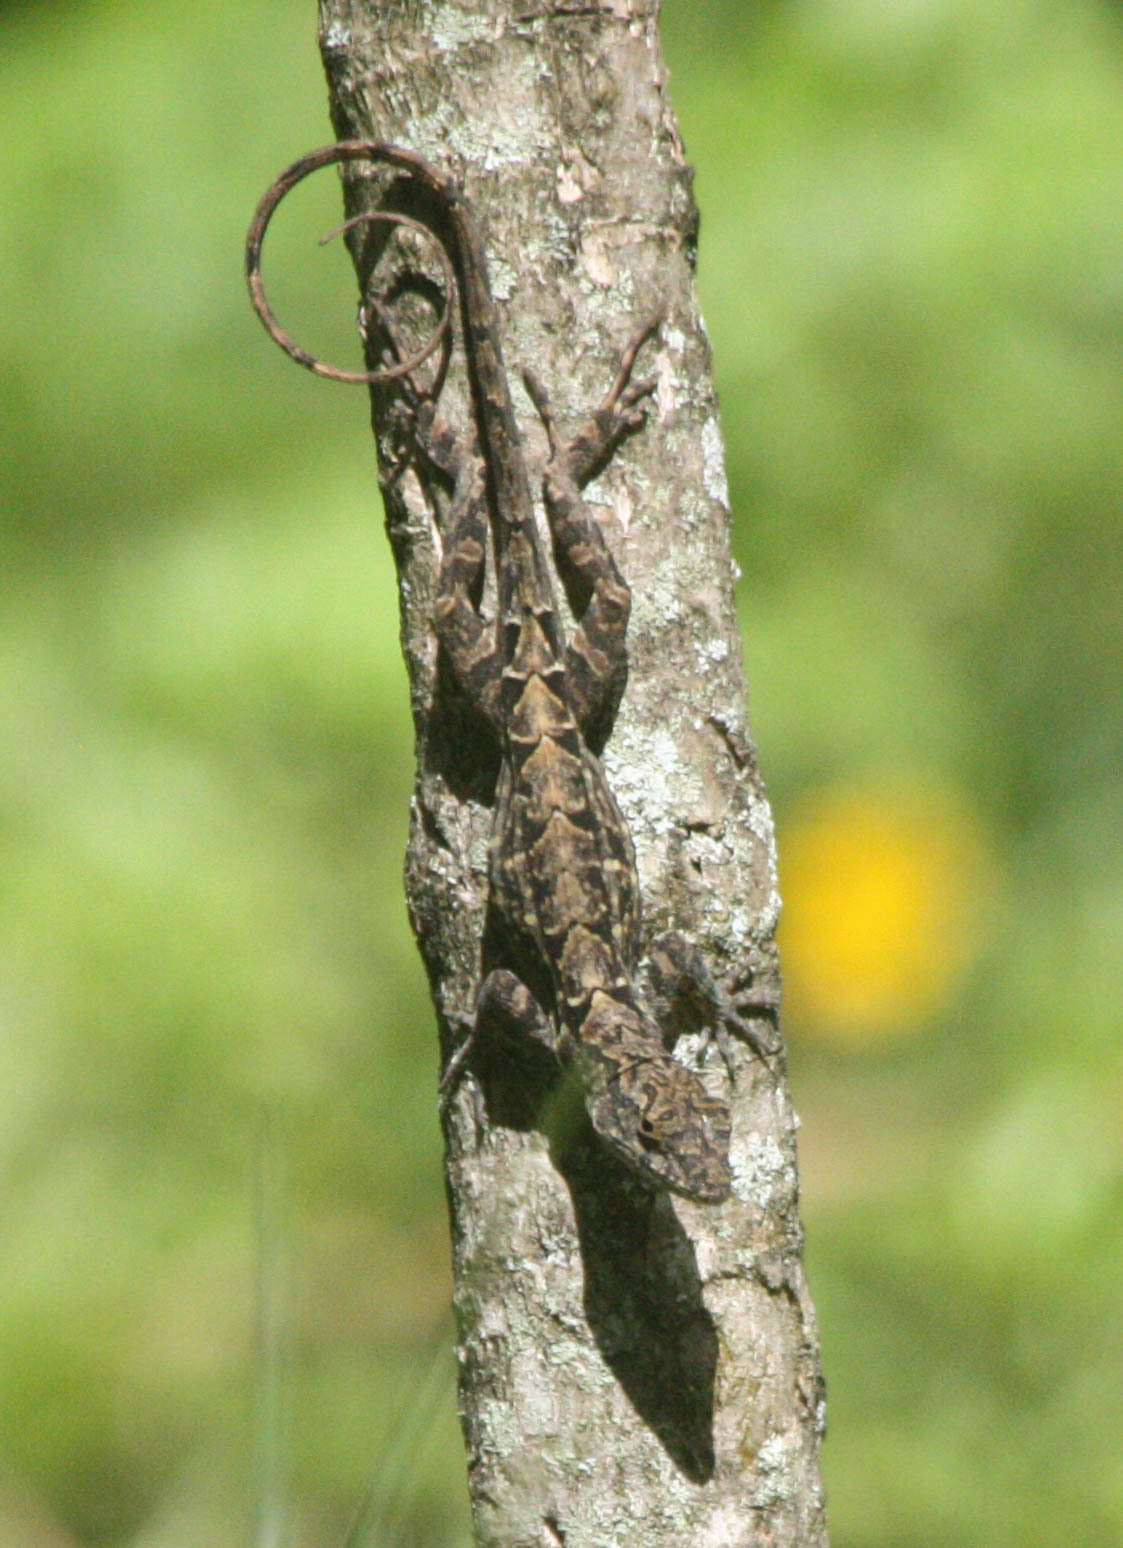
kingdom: Animalia
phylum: Chordata
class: Squamata
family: Dactyloidae
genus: Anolis
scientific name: Anolis sagrei
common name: Brown anole
